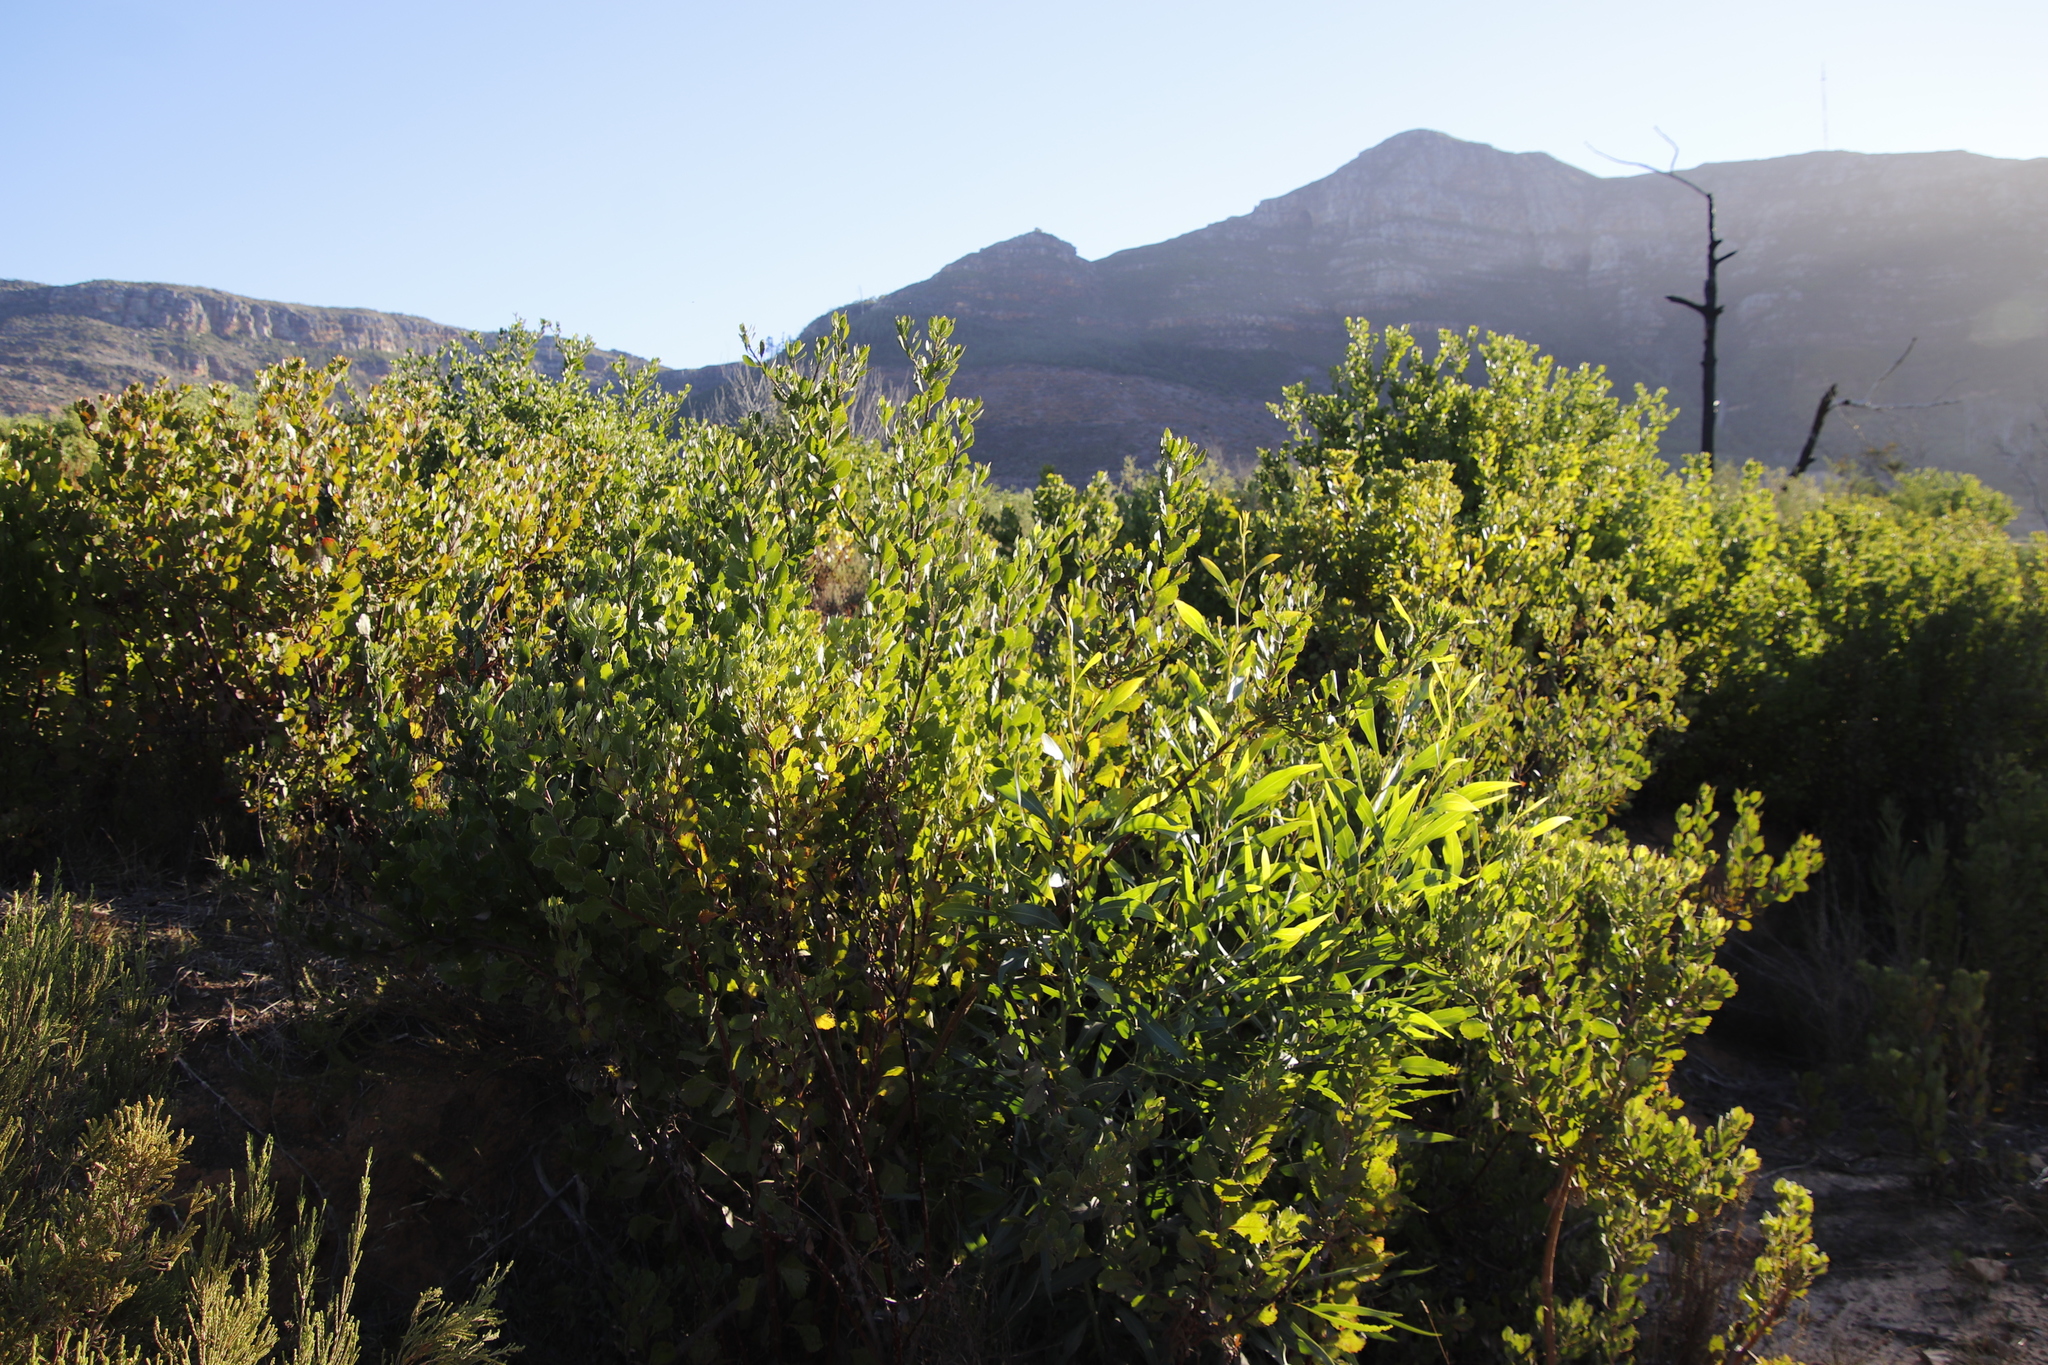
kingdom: Plantae
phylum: Tracheophyta
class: Magnoliopsida
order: Fabales
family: Fabaceae
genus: Acacia
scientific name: Acacia saligna
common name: Orange wattle
